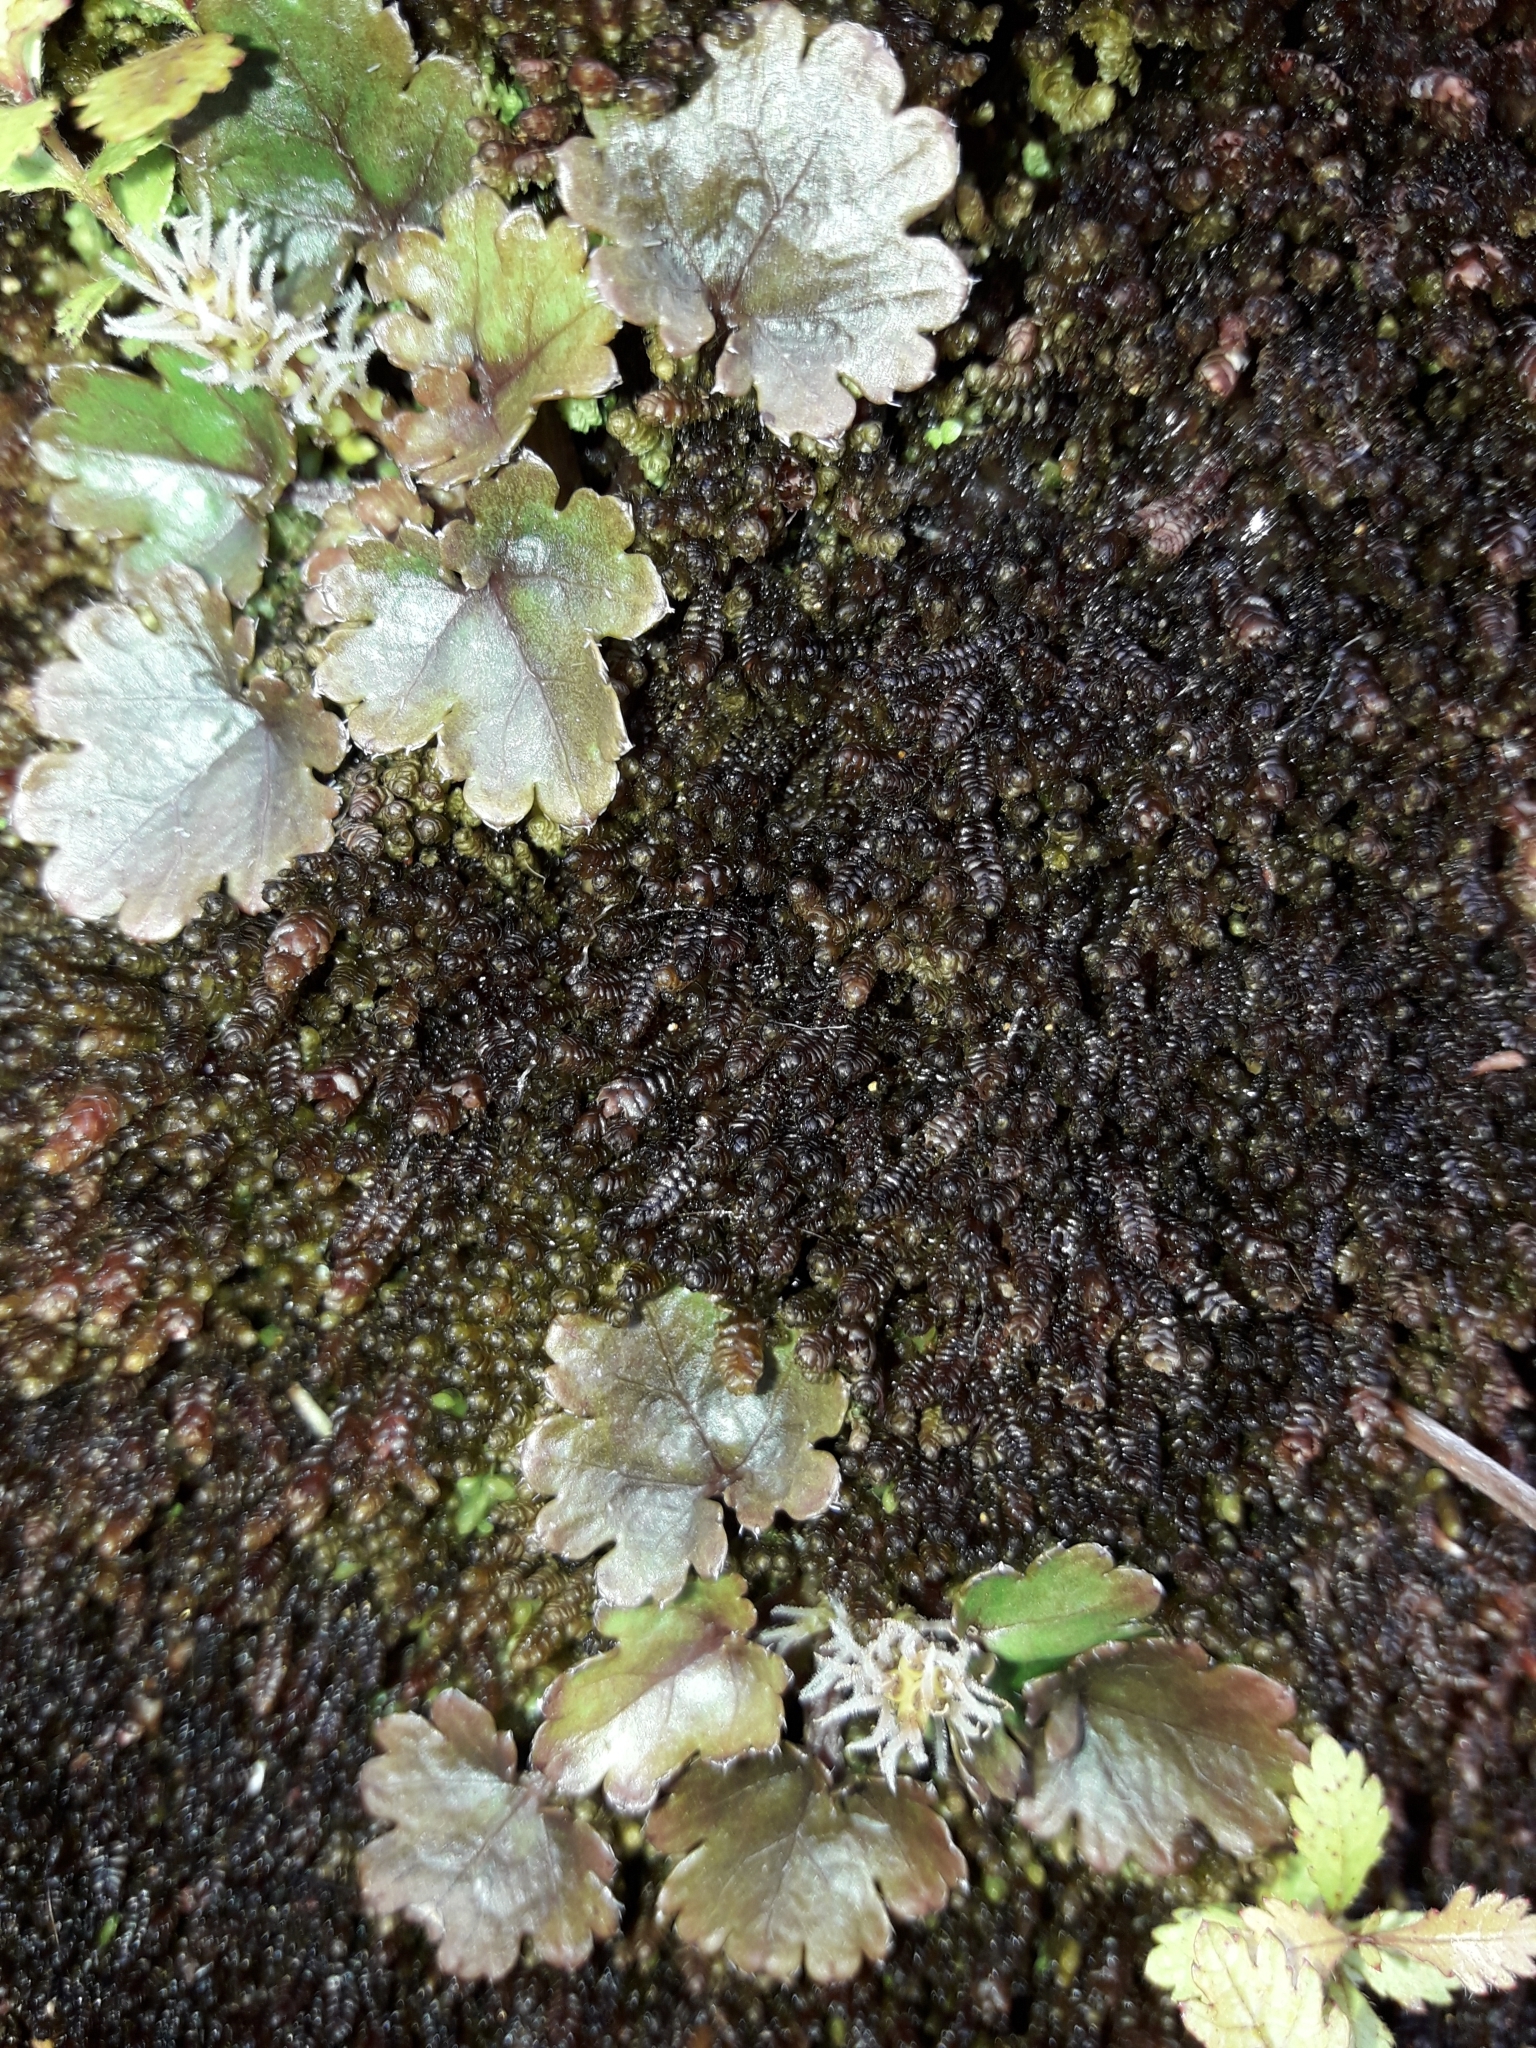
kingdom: Plantae
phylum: Tracheophyta
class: Magnoliopsida
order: Gunnerales
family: Gunneraceae
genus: Gunnera
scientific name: Gunnera monoica
